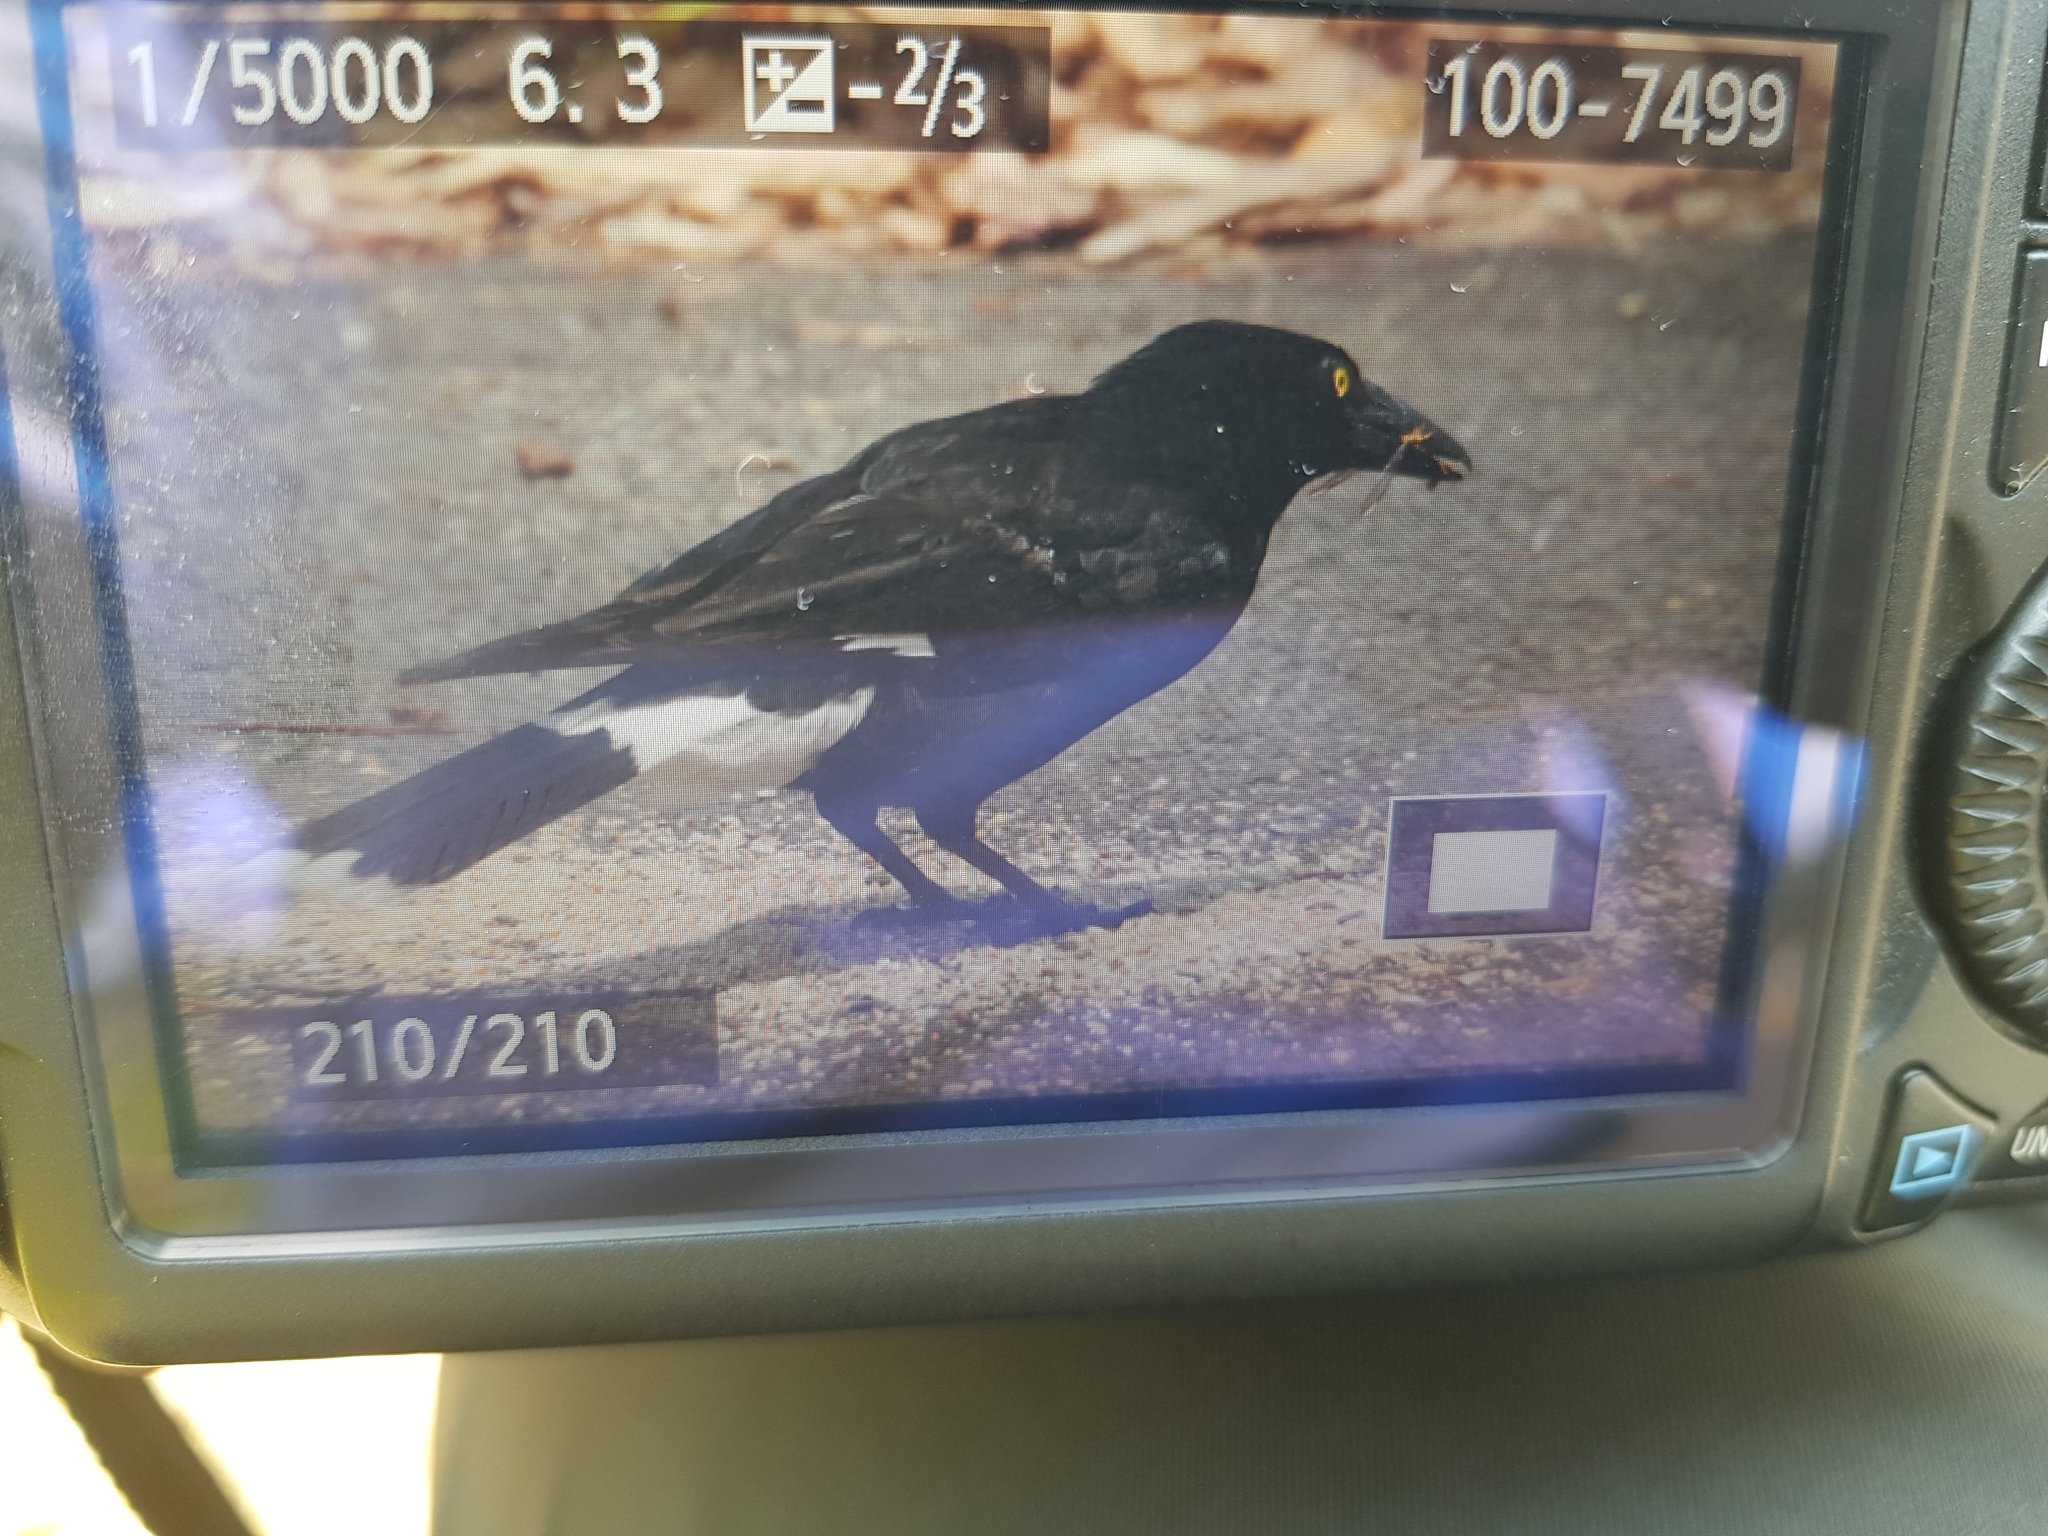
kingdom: Animalia
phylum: Chordata
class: Aves
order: Passeriformes
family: Cracticidae
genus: Strepera
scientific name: Strepera graculina
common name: Pied currawong
